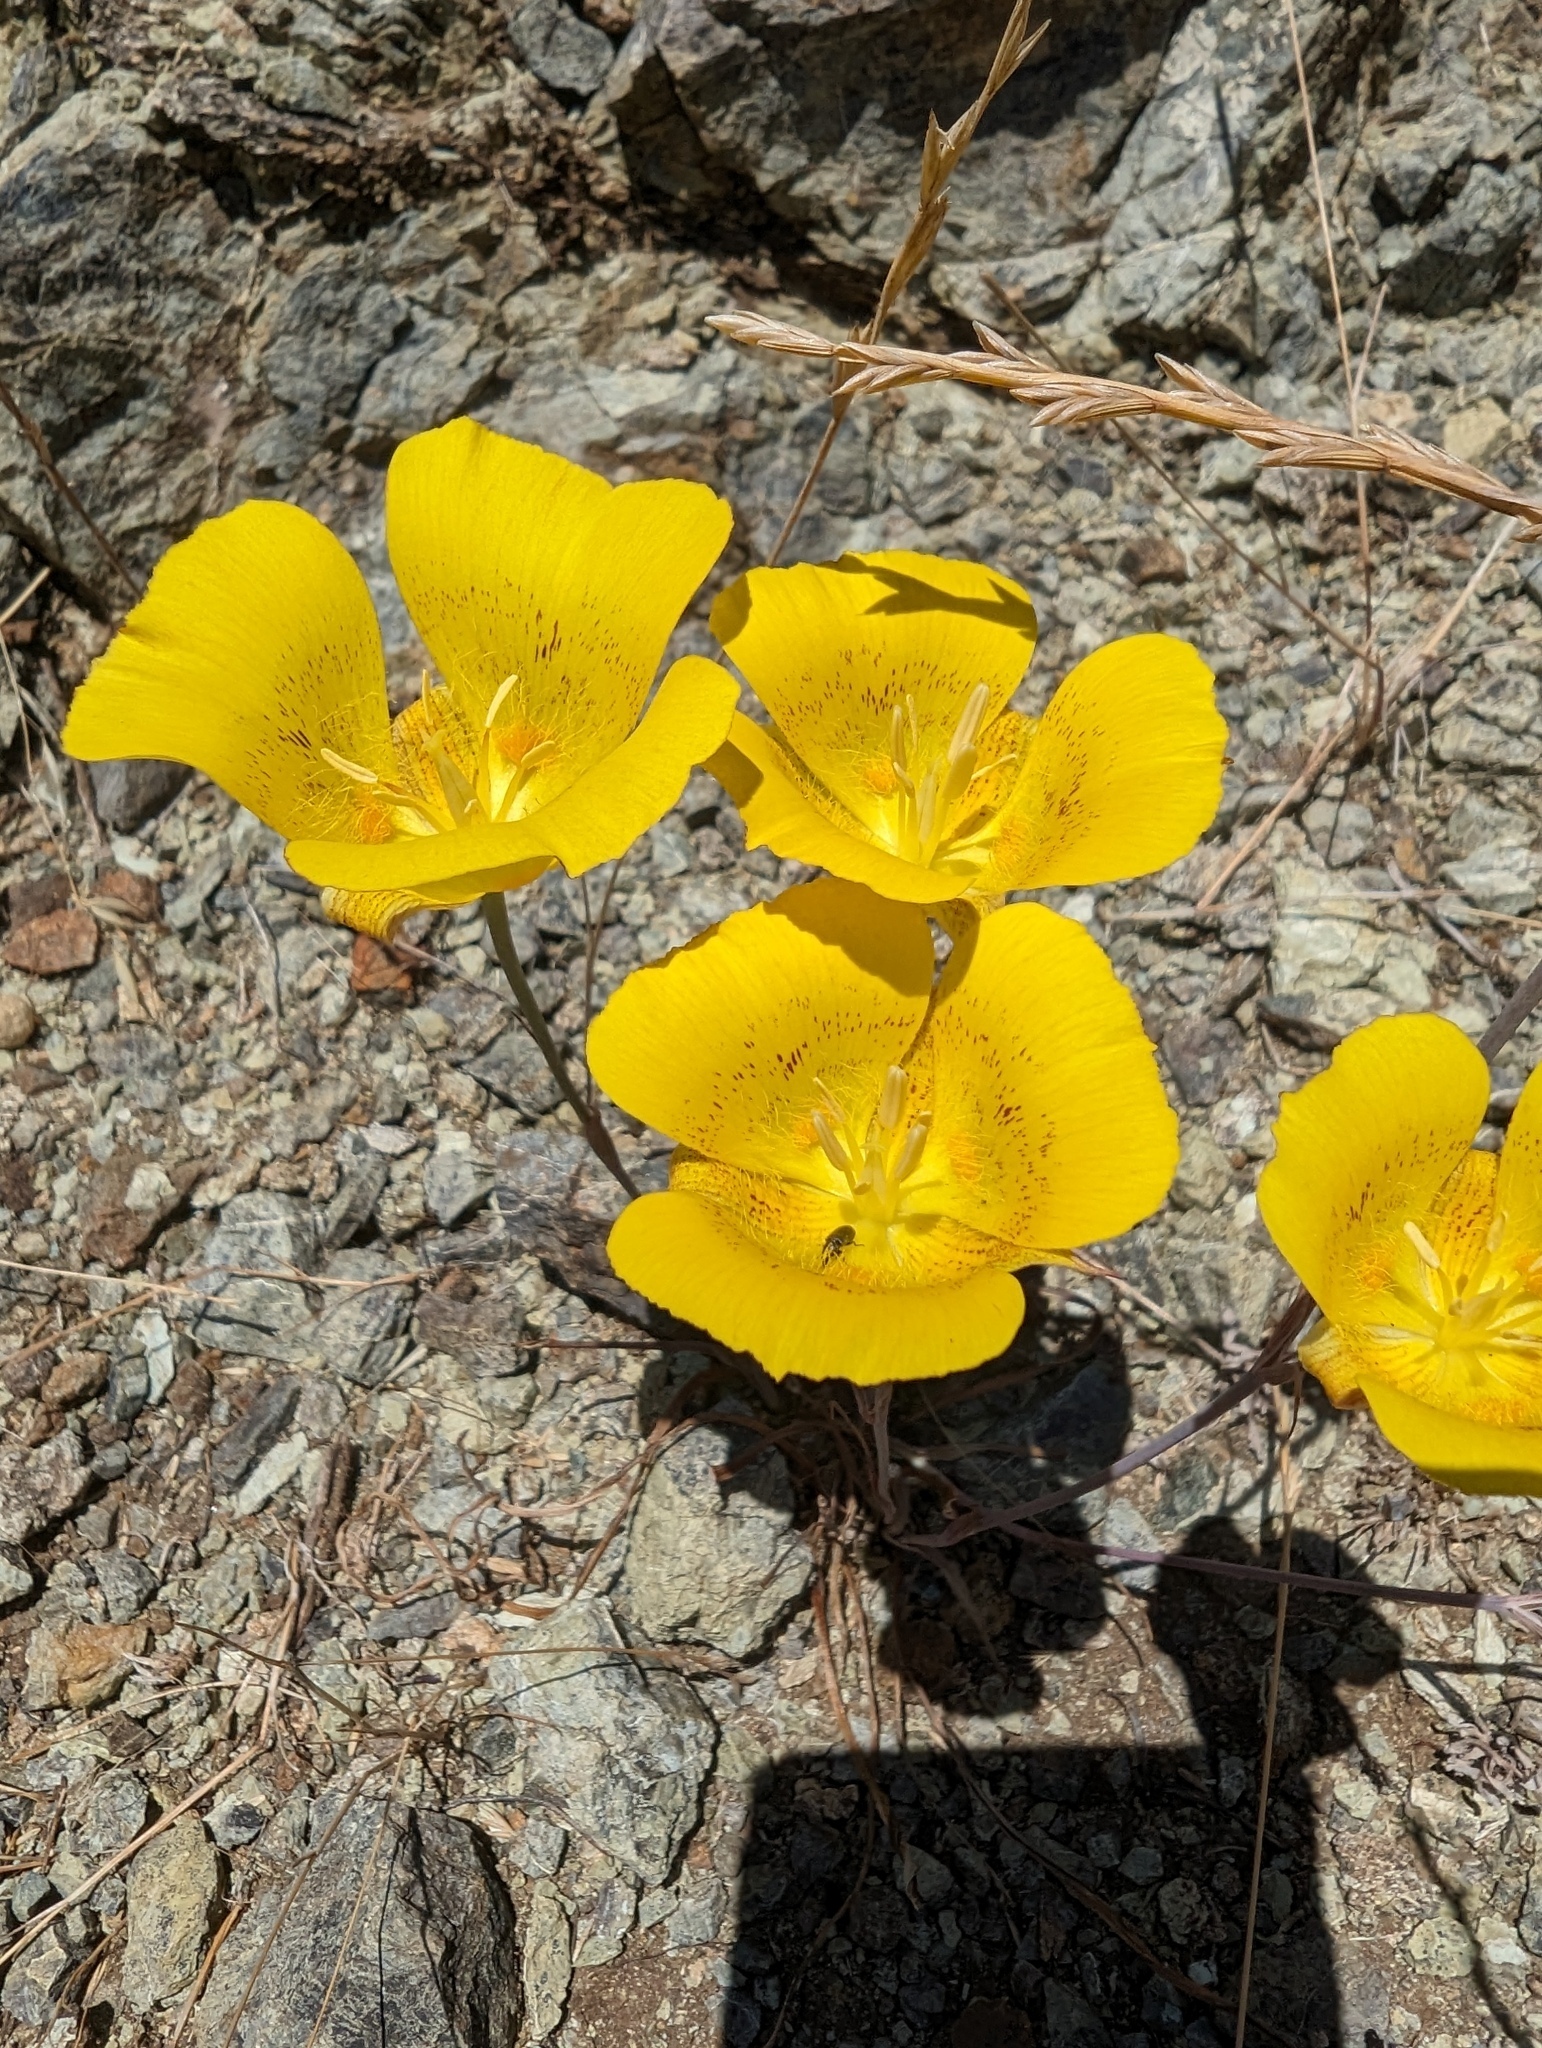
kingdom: Plantae
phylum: Tracheophyta
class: Liliopsida
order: Liliales
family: Liliaceae
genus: Calochortus
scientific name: Calochortus luteus
